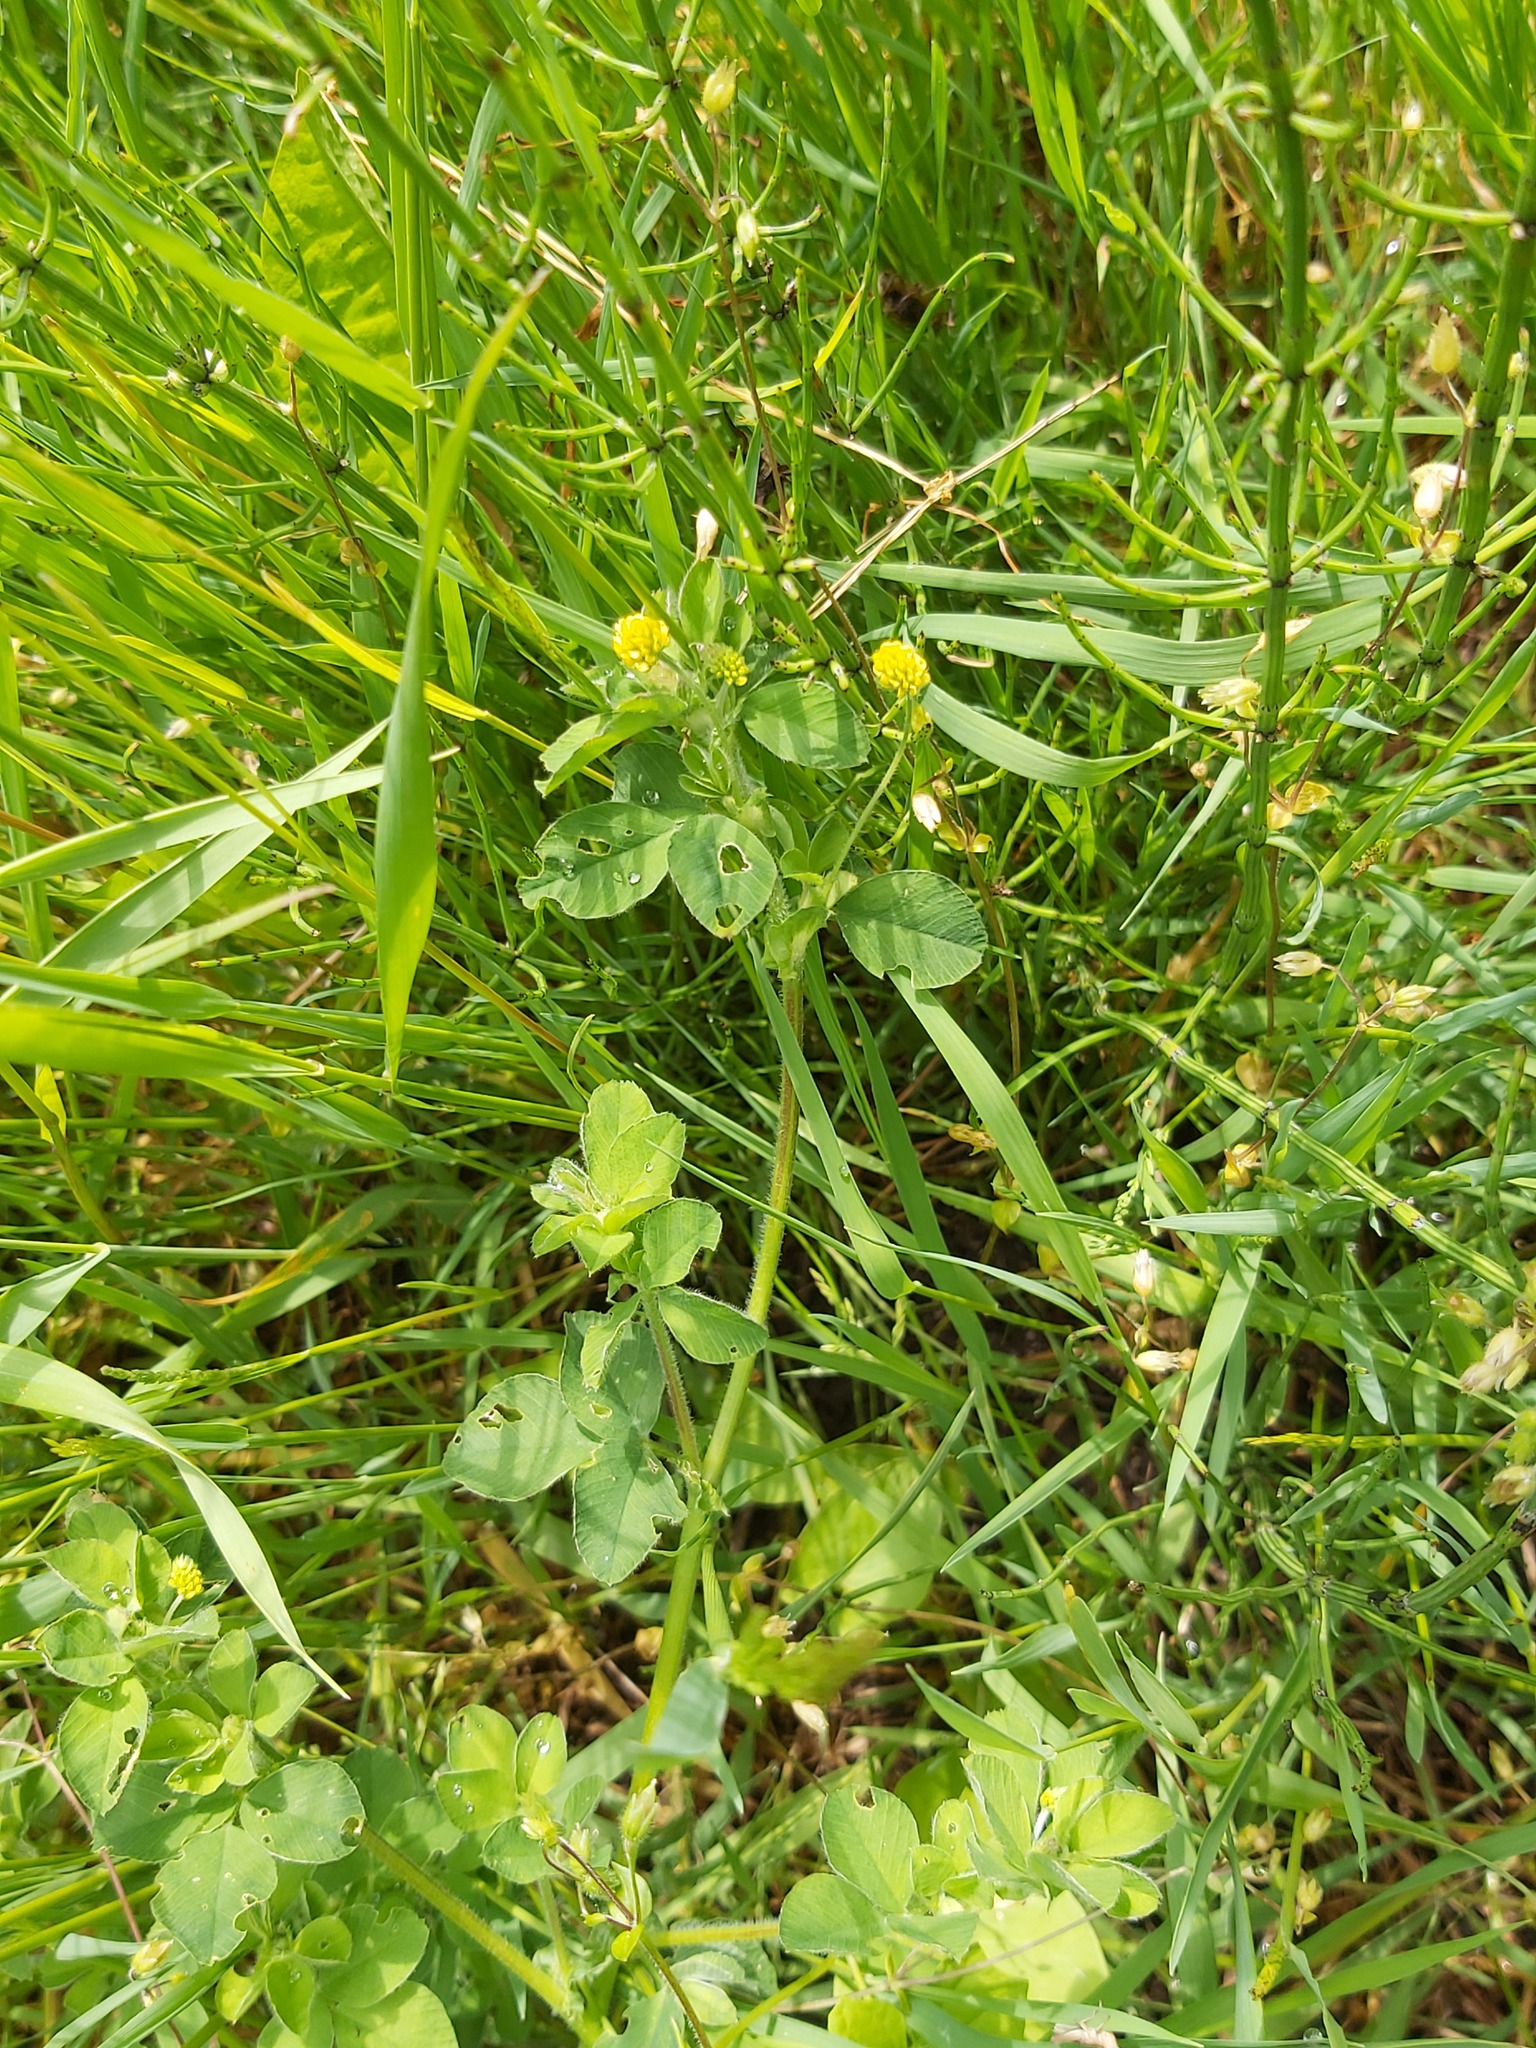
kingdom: Plantae
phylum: Tracheophyta
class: Magnoliopsida
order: Fabales
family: Fabaceae
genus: Medicago
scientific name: Medicago lupulina
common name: Black medick
